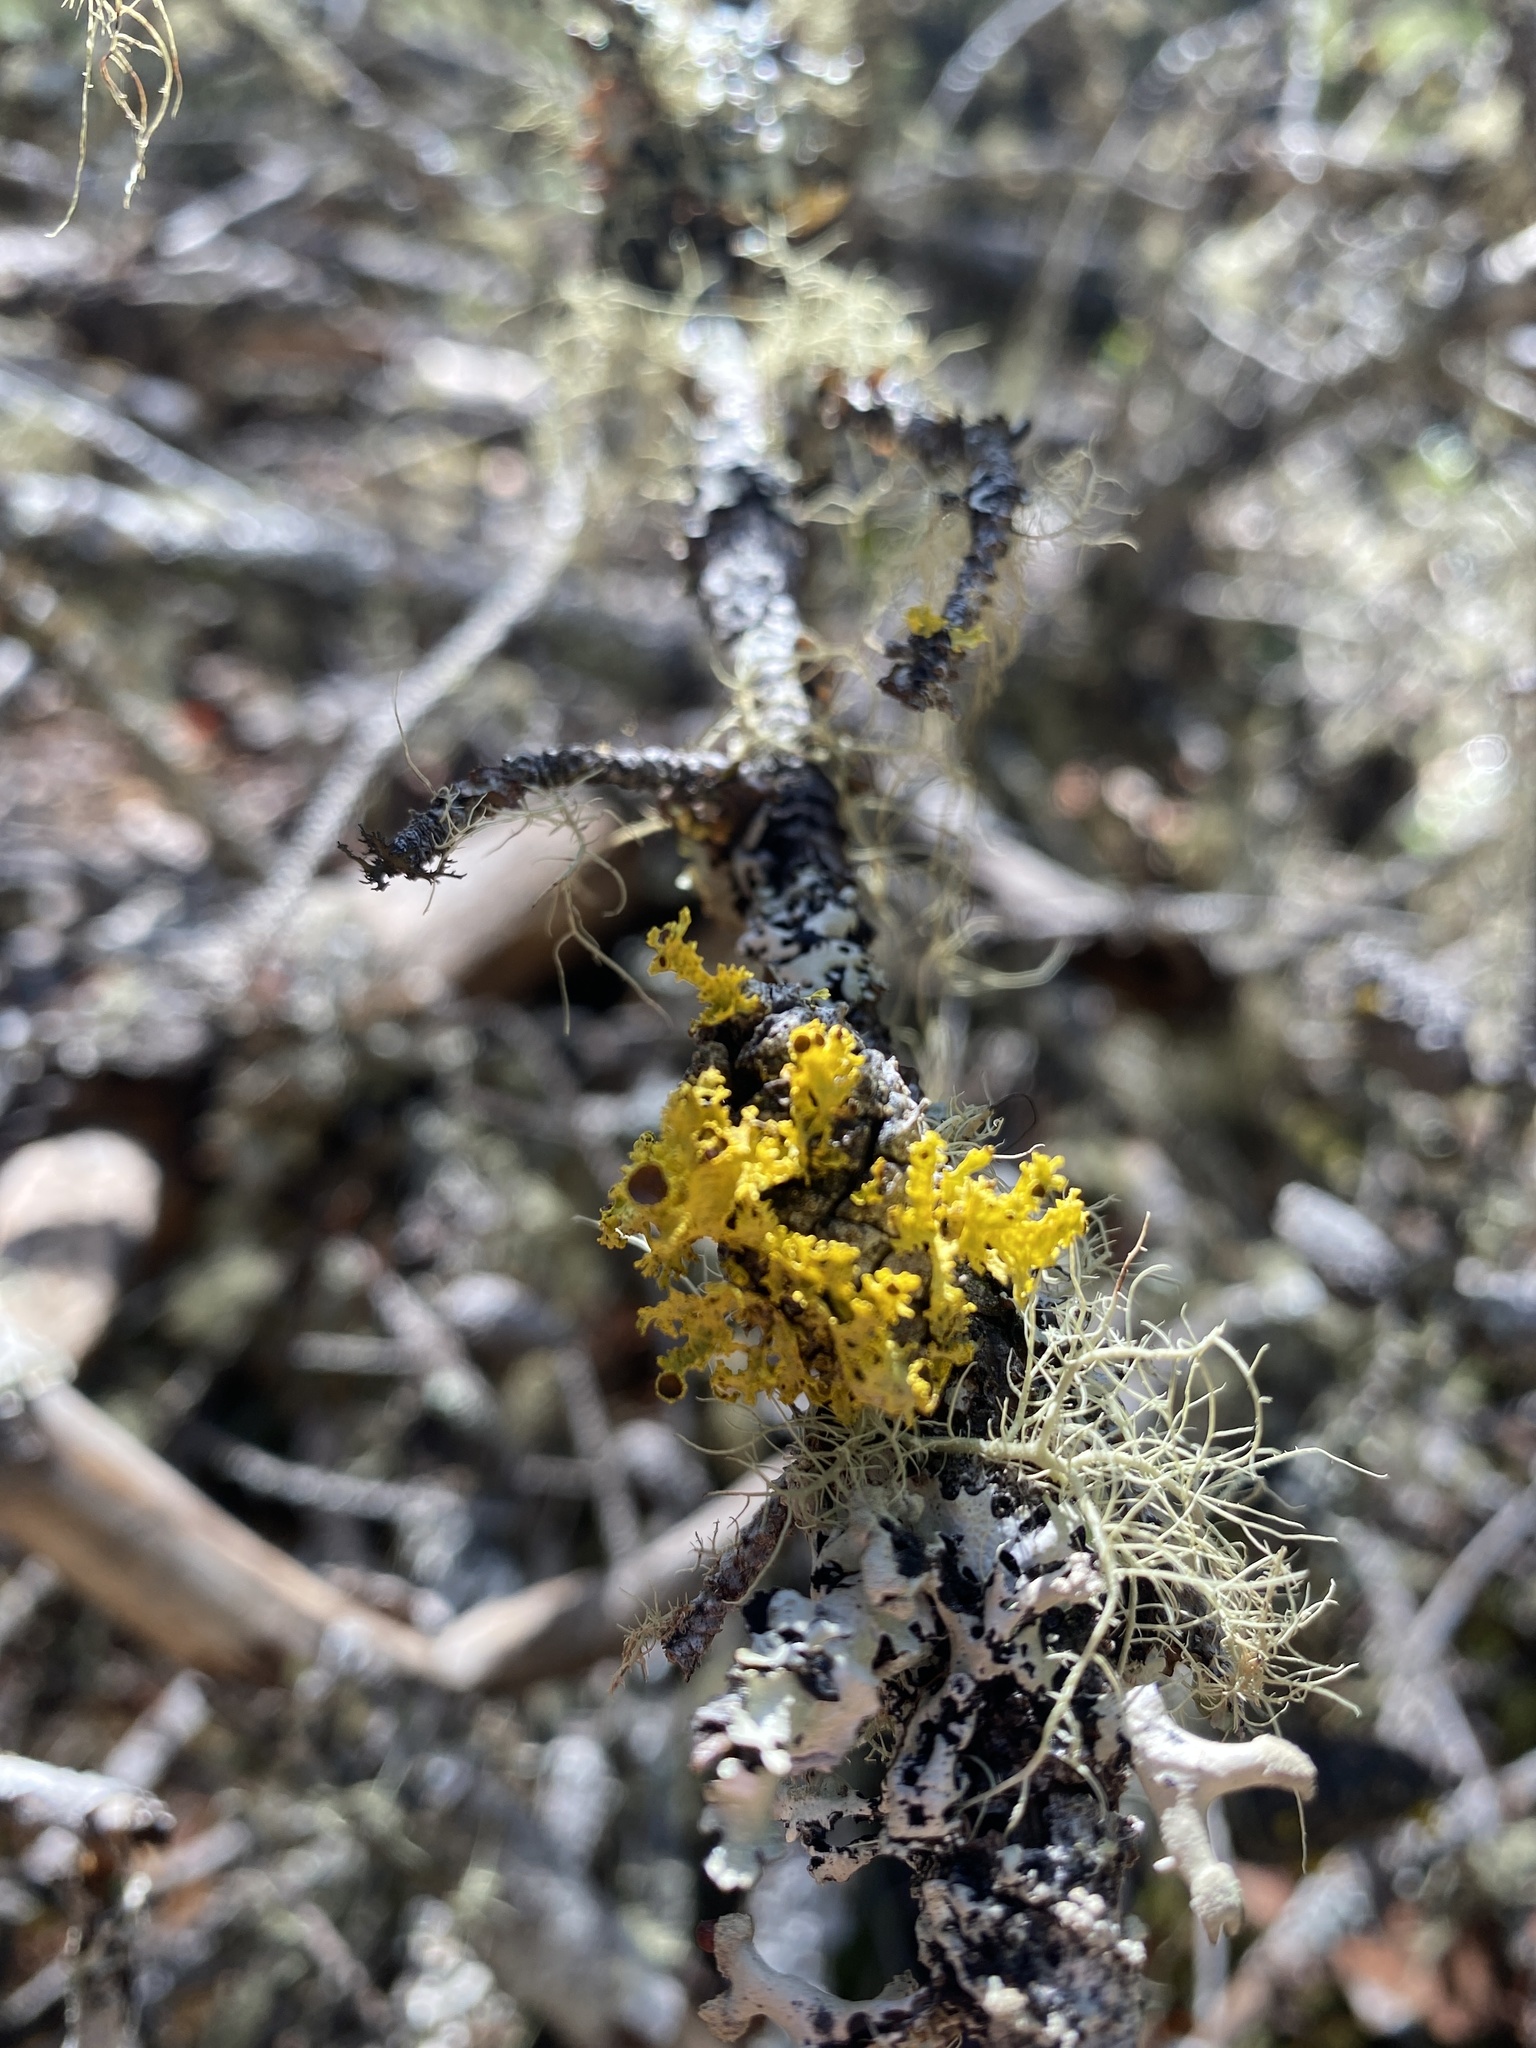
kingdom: Fungi
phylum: Ascomycota
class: Lecanoromycetes
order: Lecanorales
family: Parmeliaceae
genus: Vulpicida
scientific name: Vulpicida canadensis
